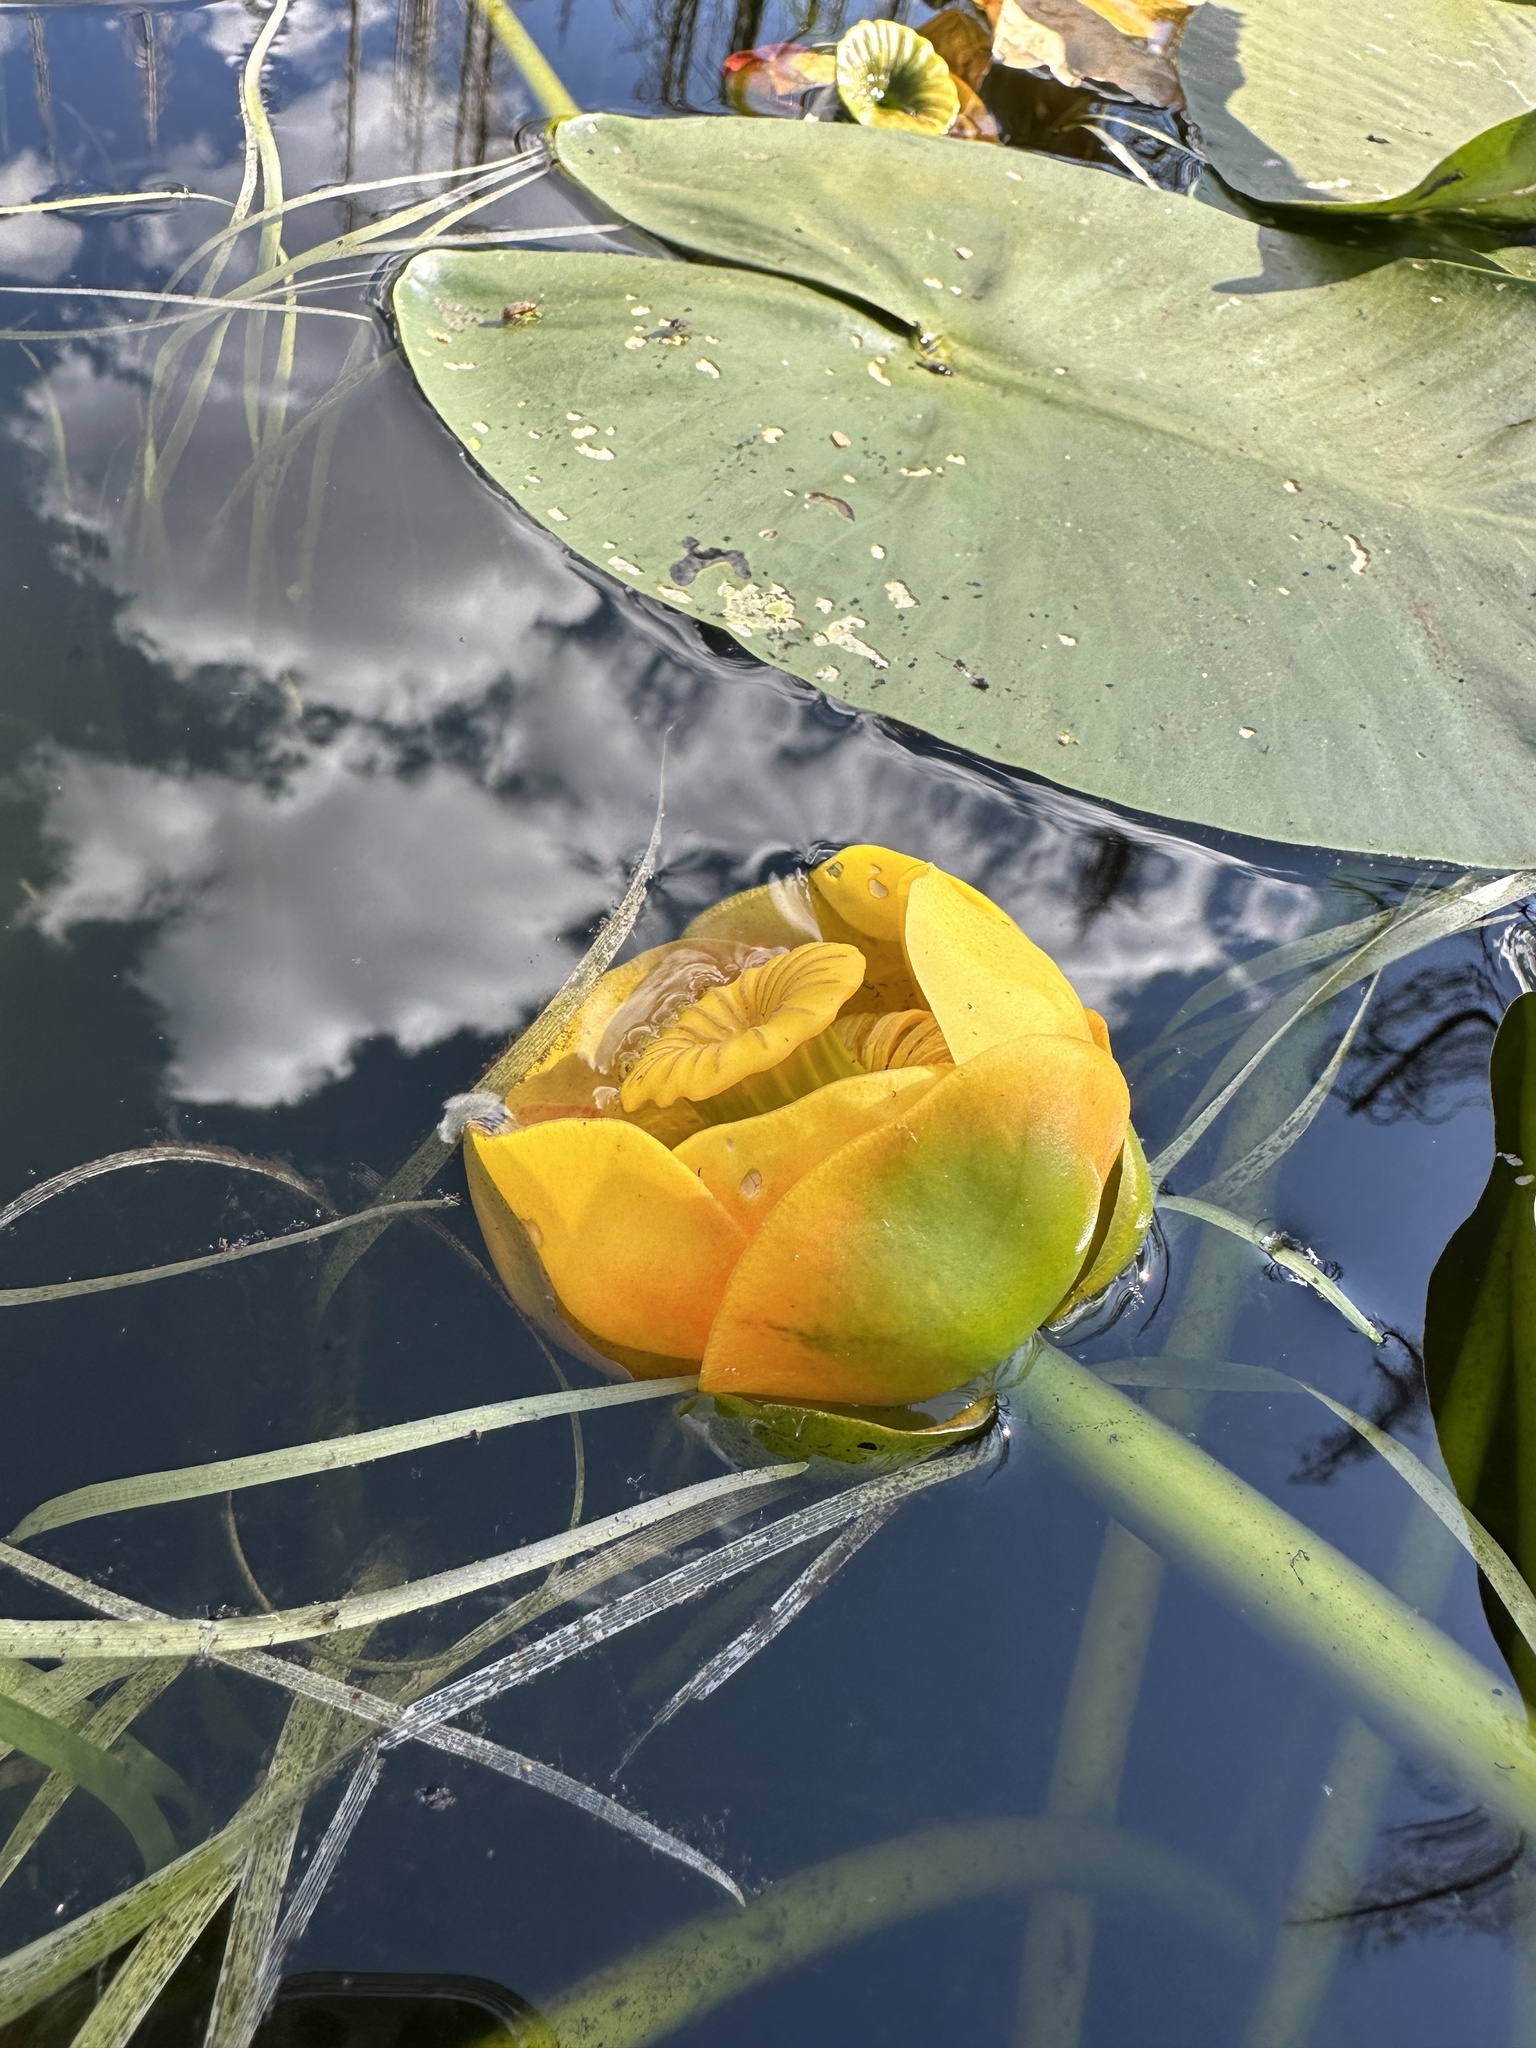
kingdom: Plantae
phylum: Tracheophyta
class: Magnoliopsida
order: Nymphaeales
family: Nymphaeaceae
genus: Nuphar
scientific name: Nuphar polysepala
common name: Rocky mountain cow-lily
